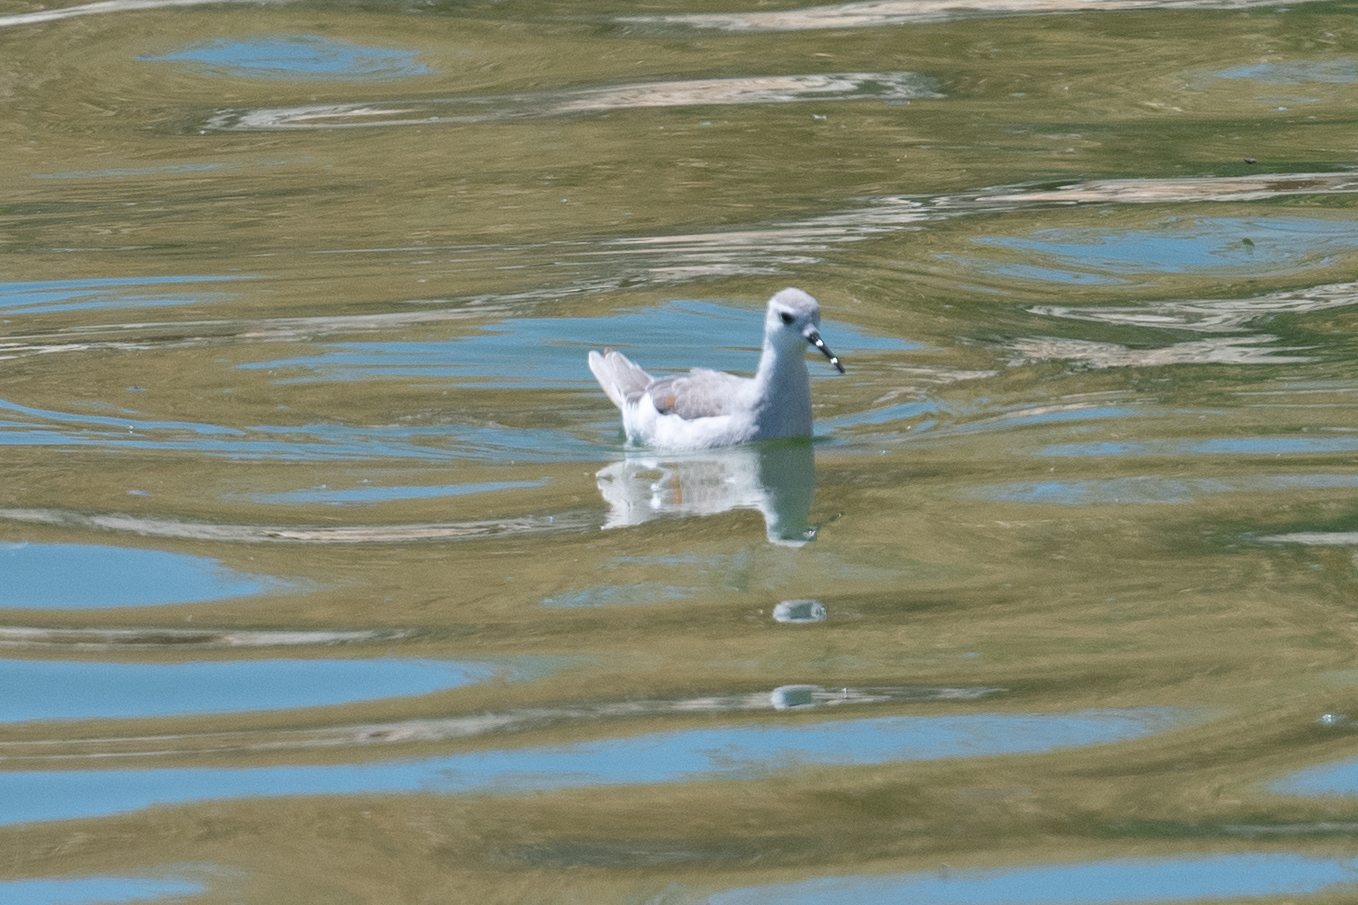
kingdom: Animalia
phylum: Chordata
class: Aves
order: Charadriiformes
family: Scolopacidae
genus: Phalaropus
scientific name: Phalaropus tricolor
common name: Wilson's phalarope
